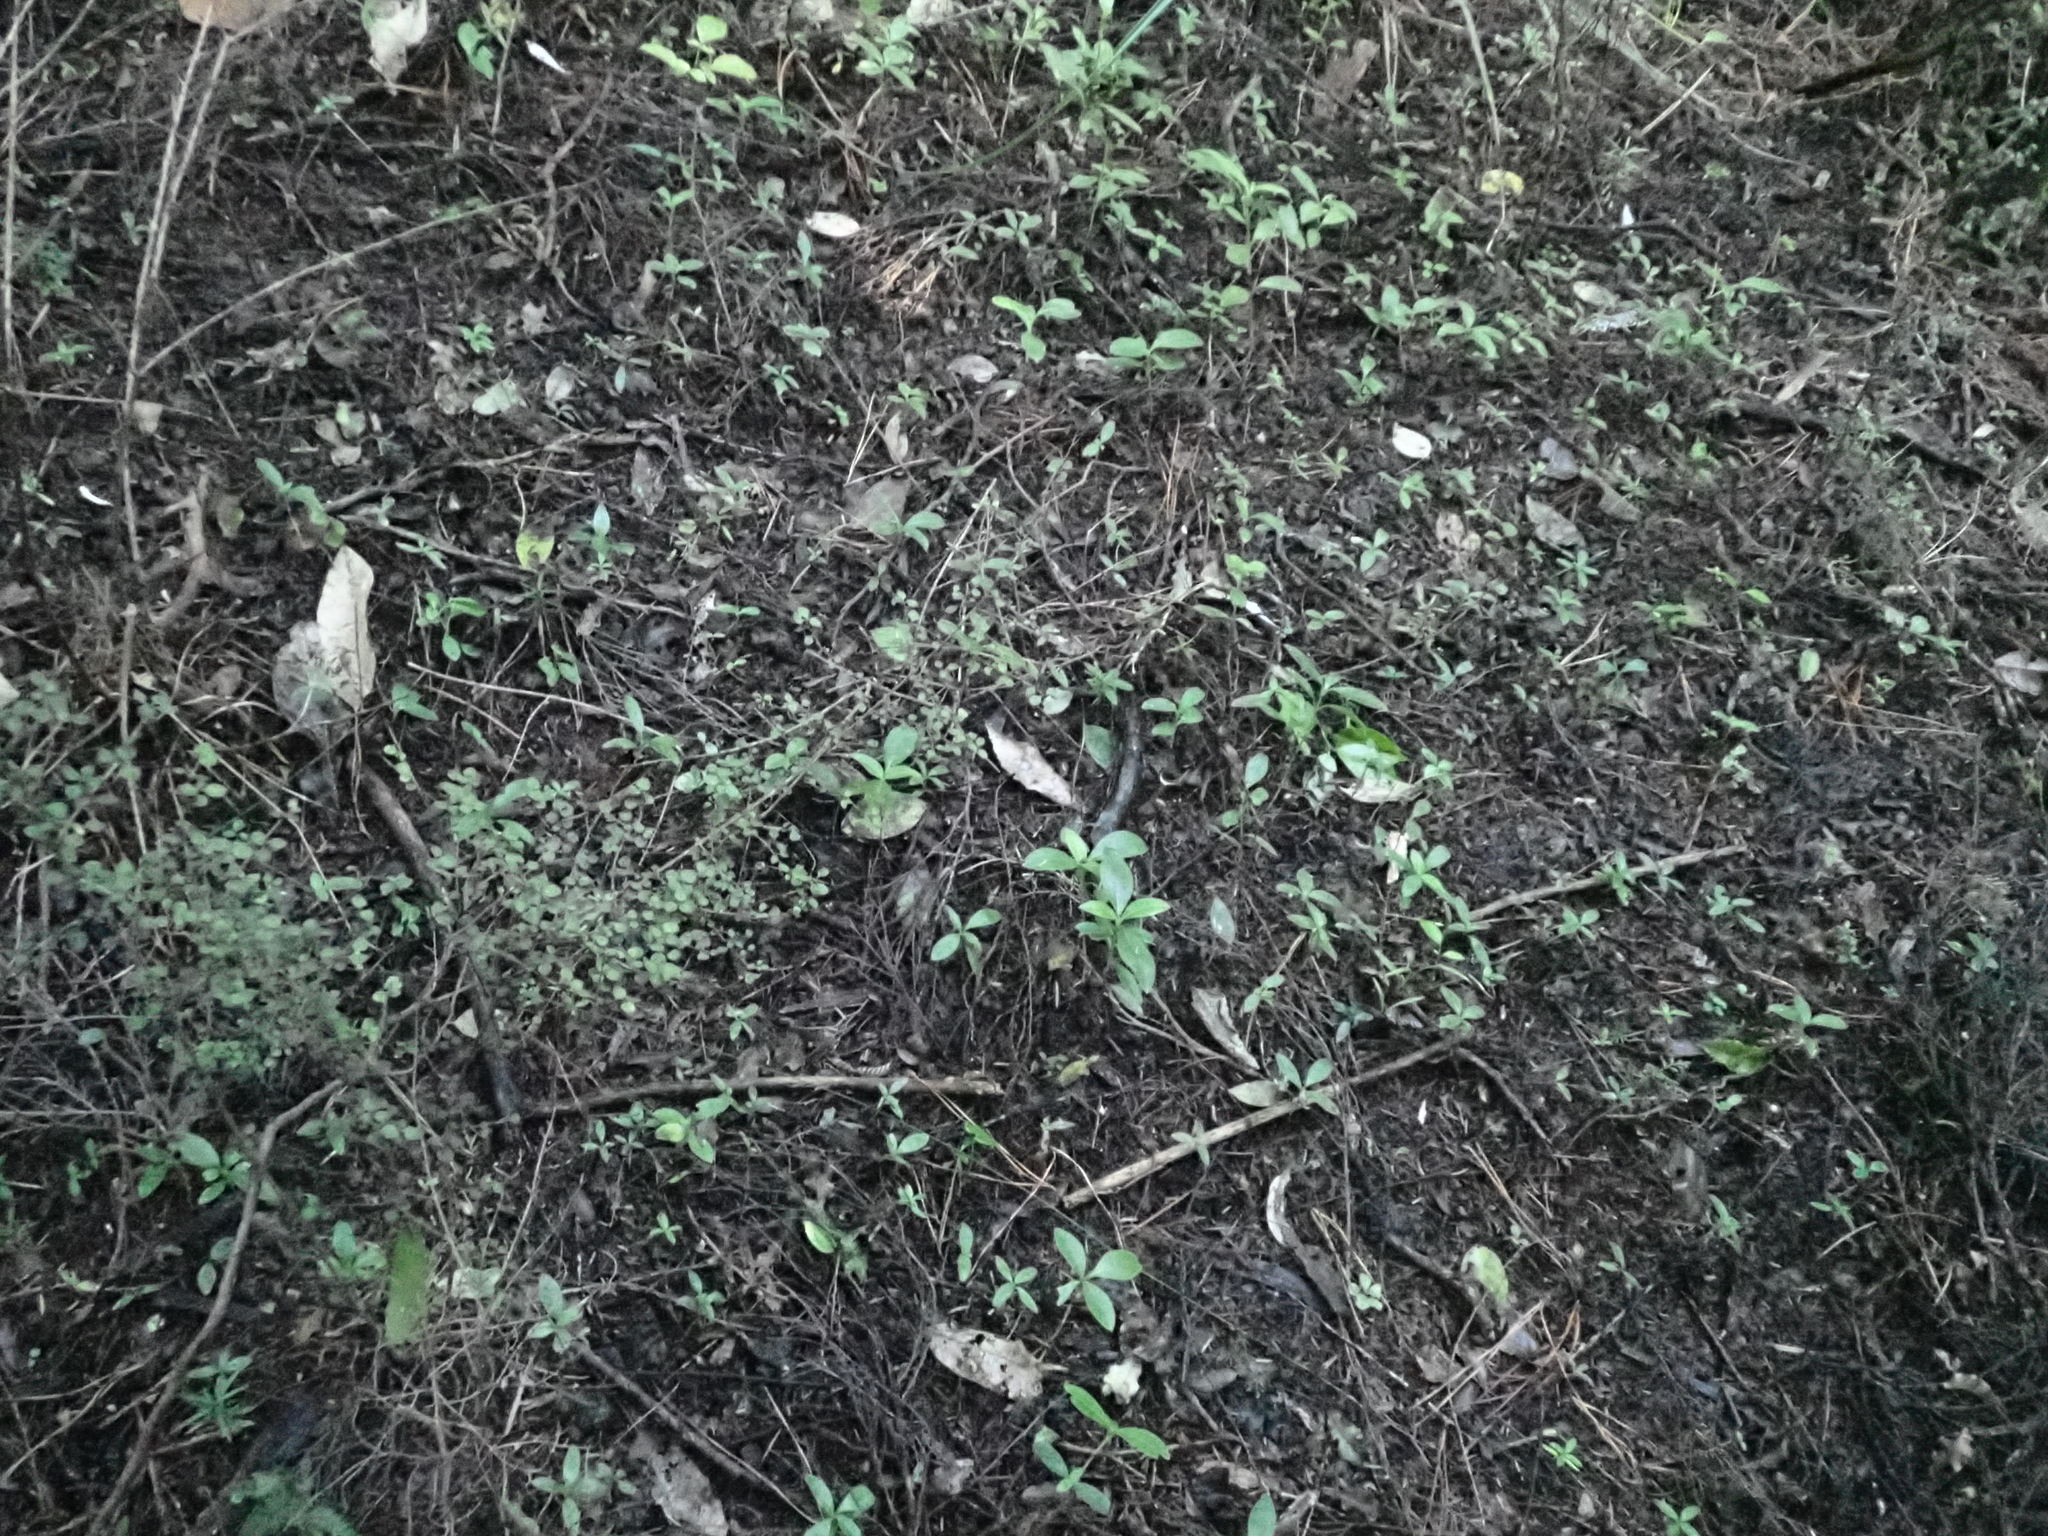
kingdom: Plantae
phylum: Tracheophyta
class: Magnoliopsida
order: Sapindales
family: Meliaceae
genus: Didymocheton
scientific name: Didymocheton spectabilis
